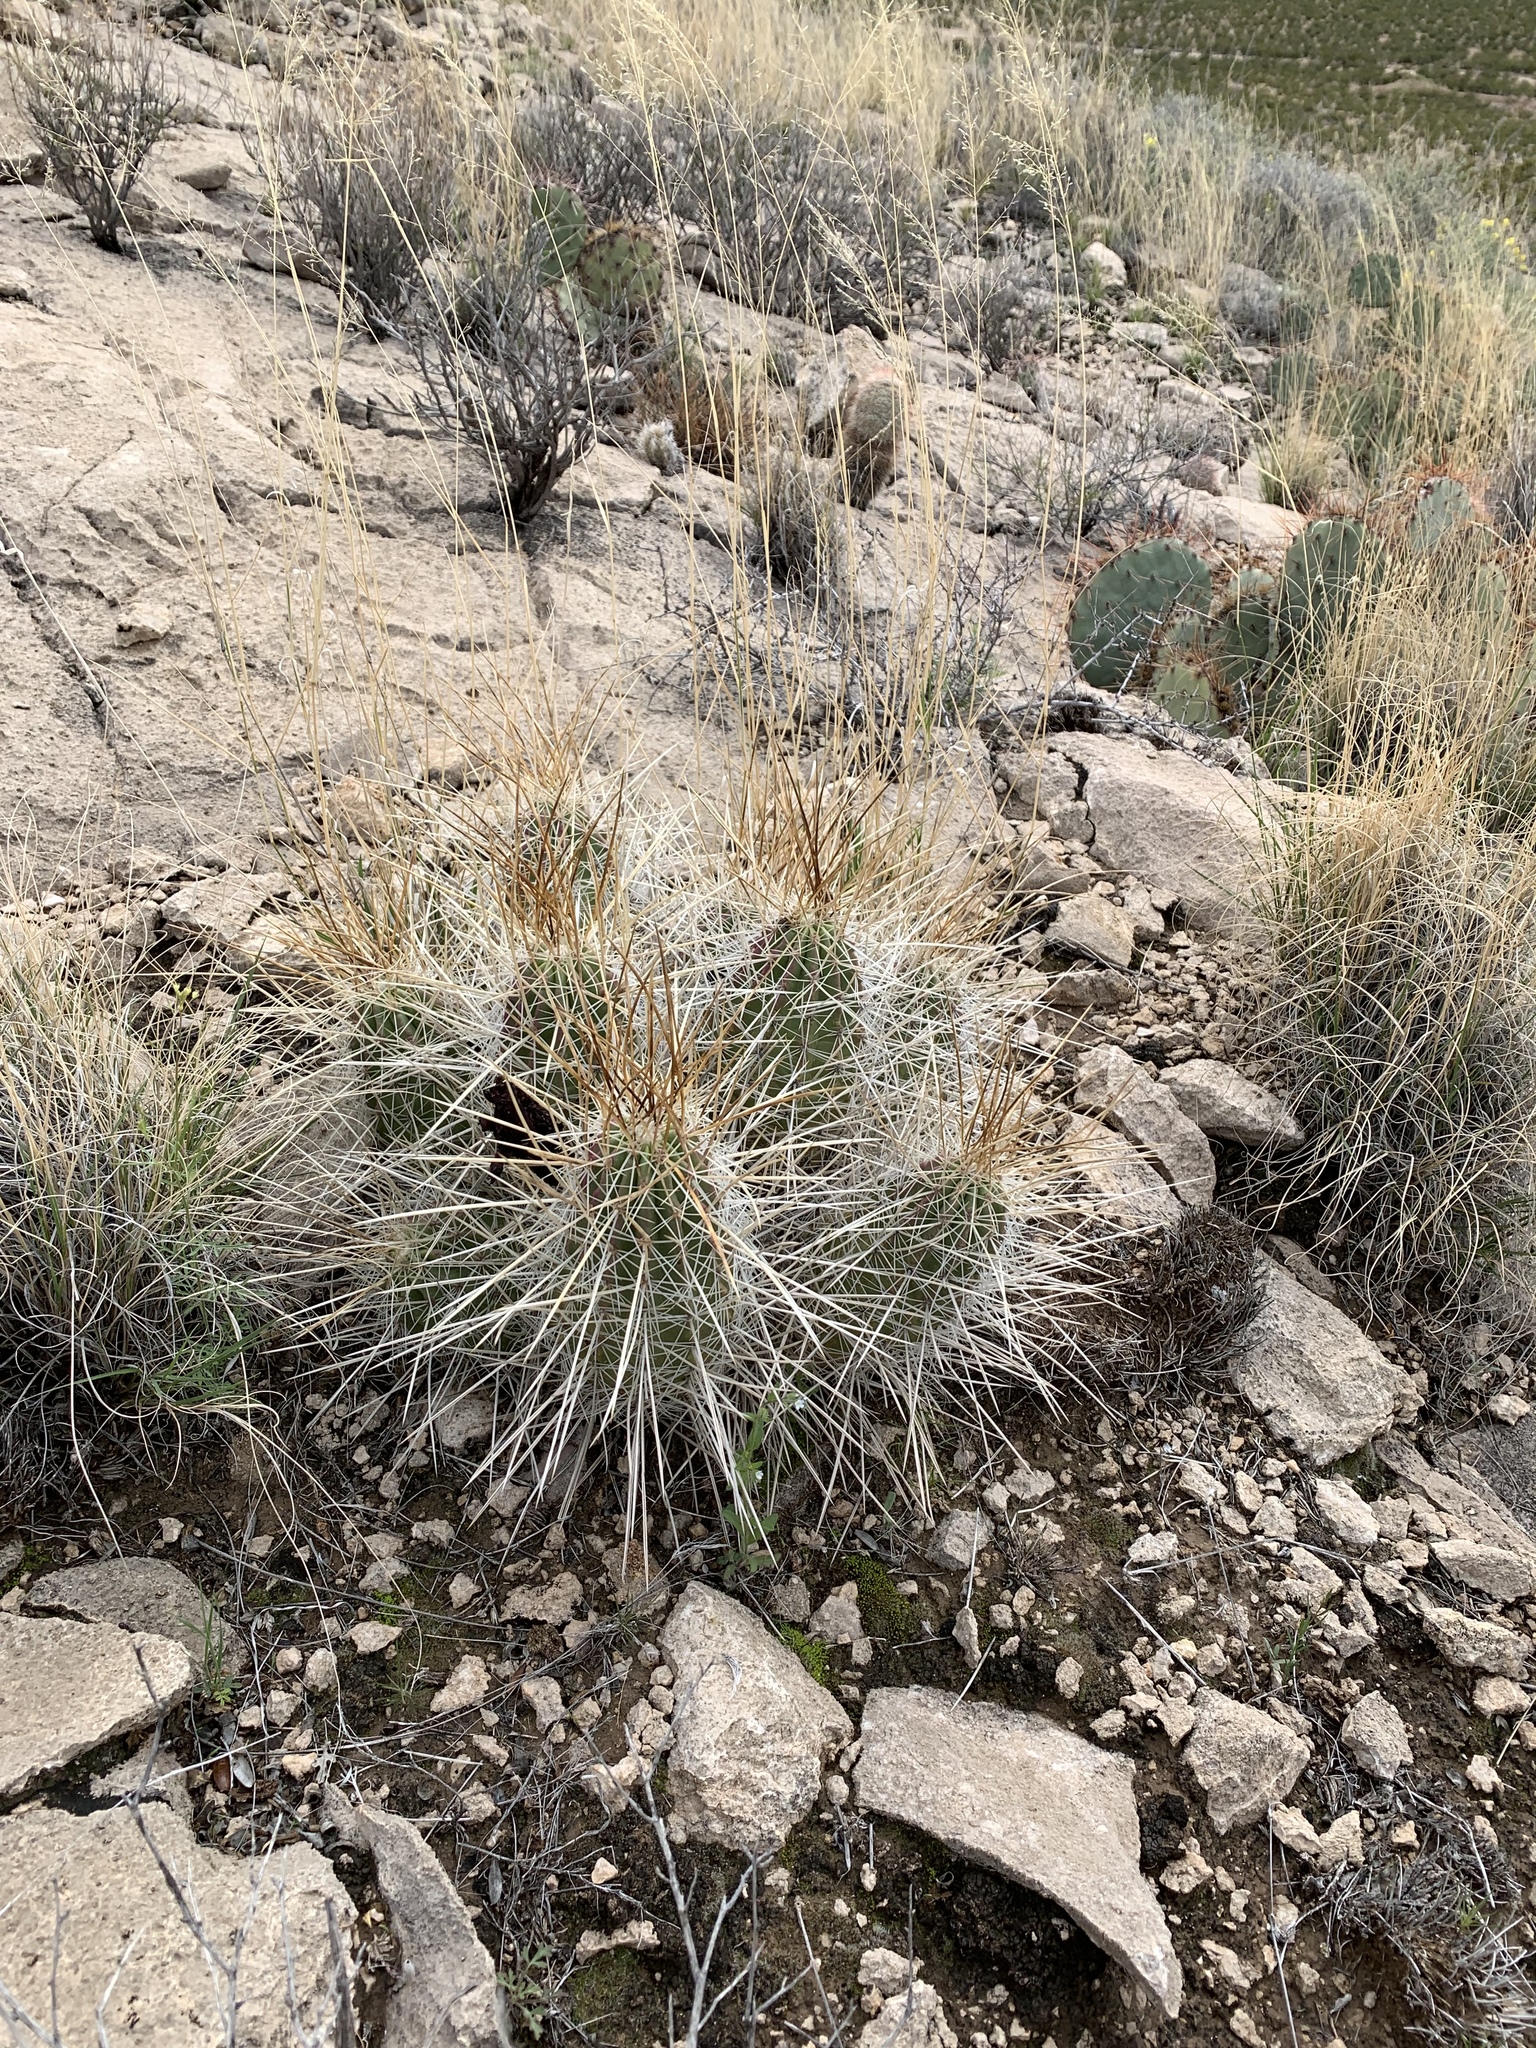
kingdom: Plantae
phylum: Tracheophyta
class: Magnoliopsida
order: Caryophyllales
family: Cactaceae
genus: Echinocereus
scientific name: Echinocereus stramineus
